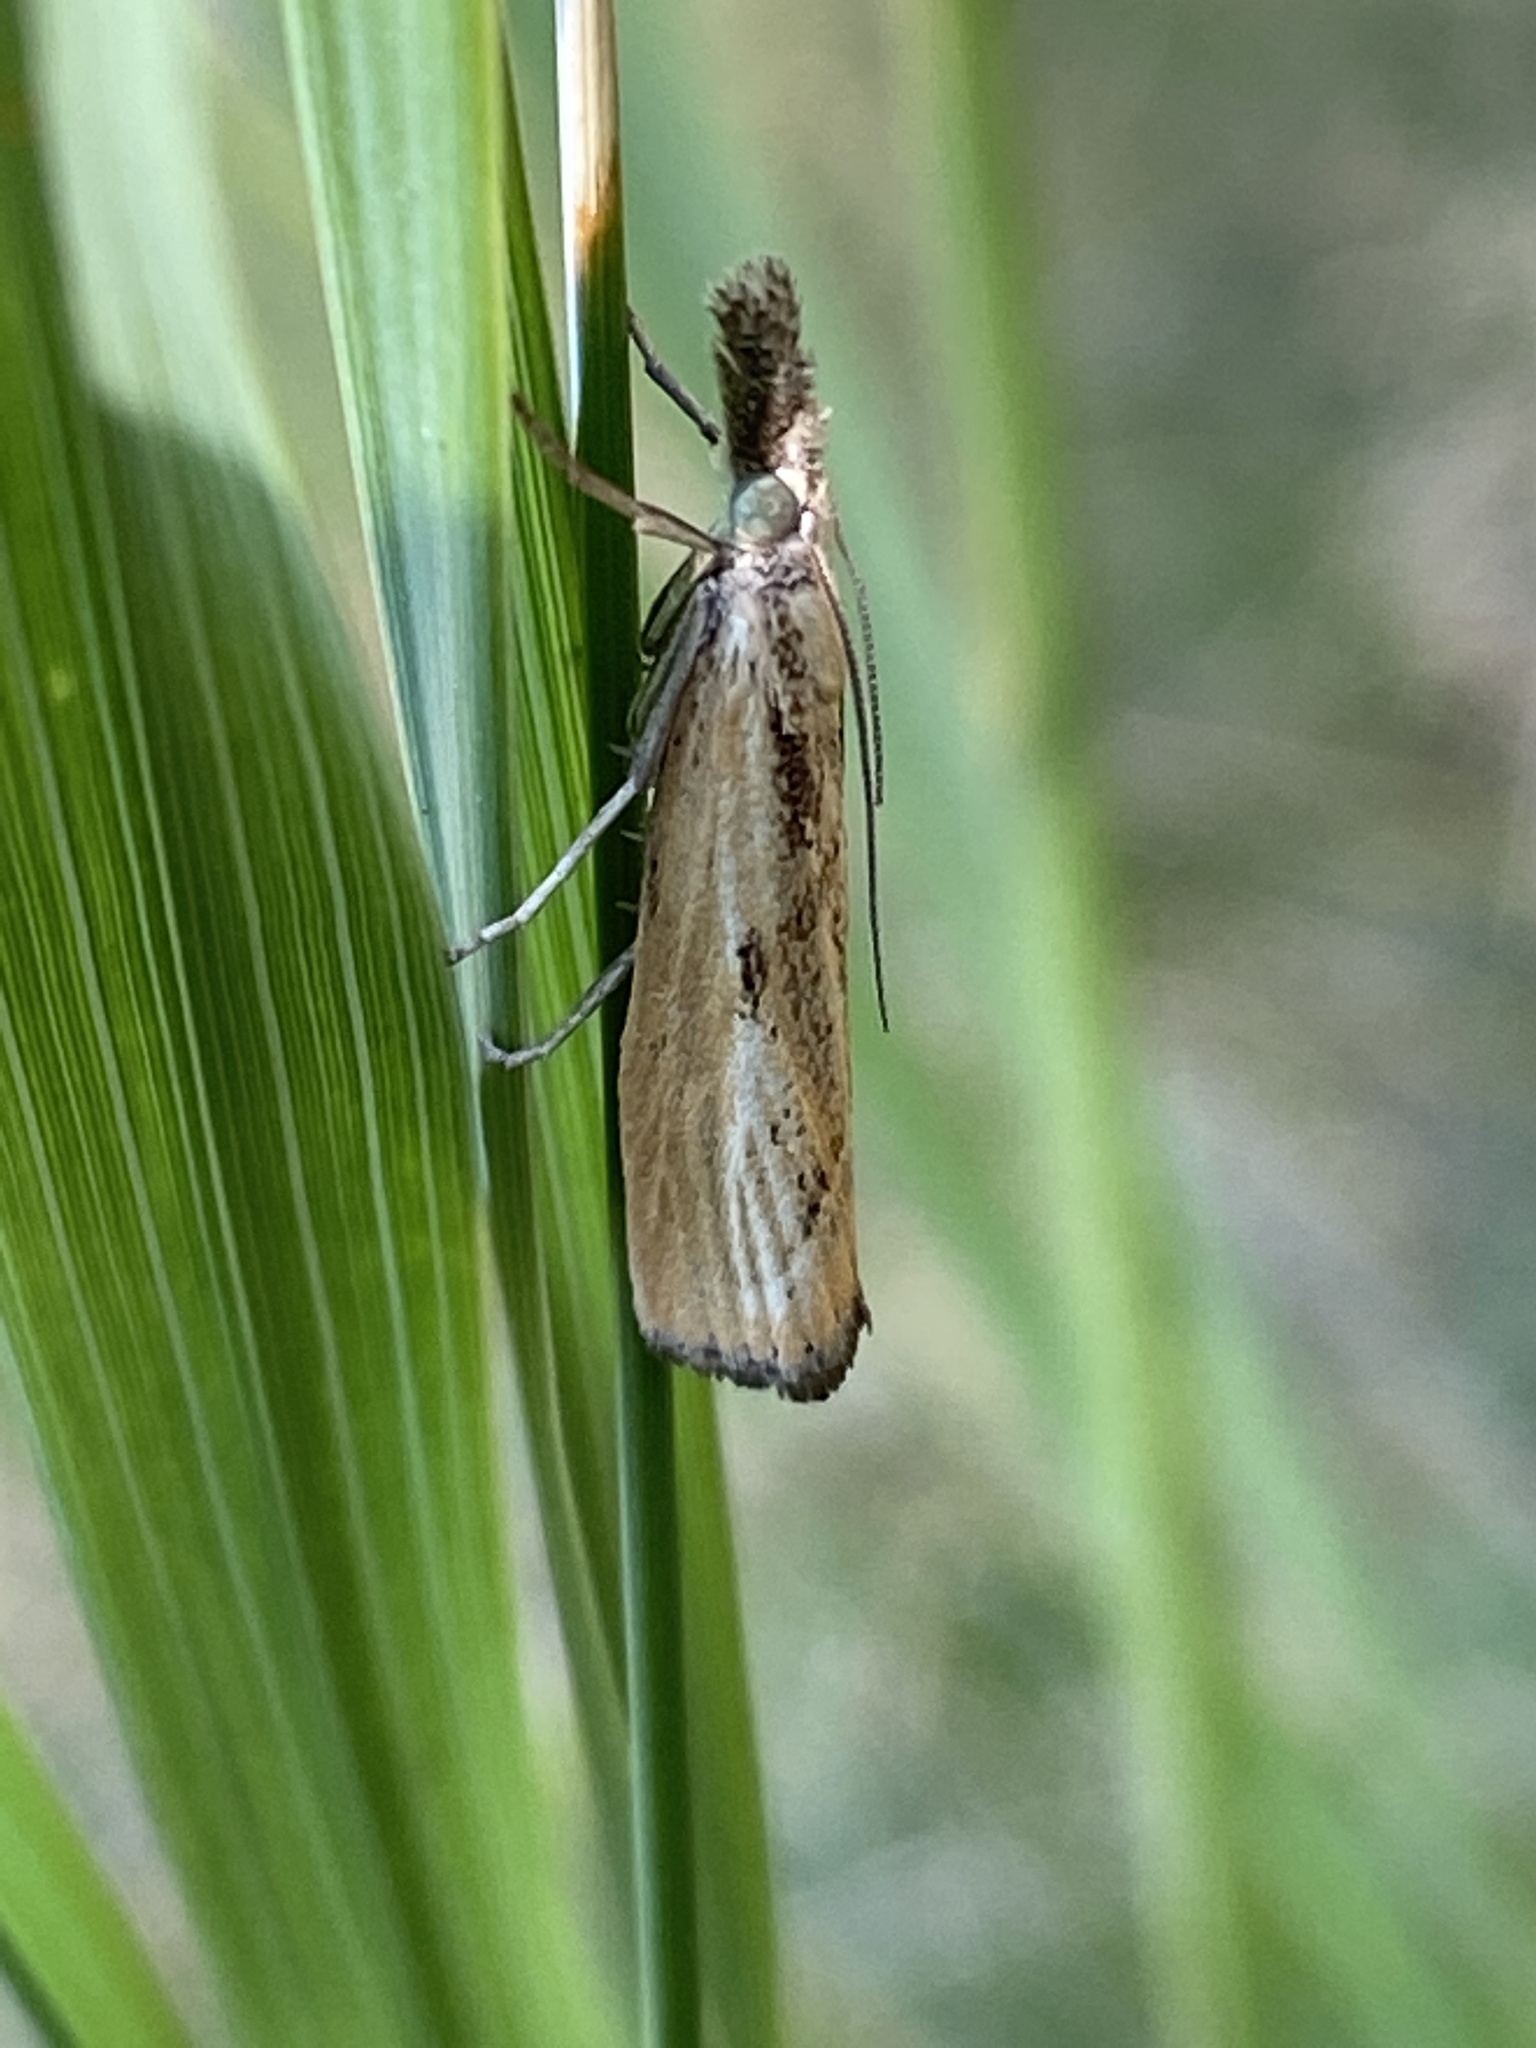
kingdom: Animalia
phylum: Arthropoda
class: Insecta
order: Lepidoptera
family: Crambidae
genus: Agriphila
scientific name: Agriphila inquinatella
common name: Barred grass-veneer
